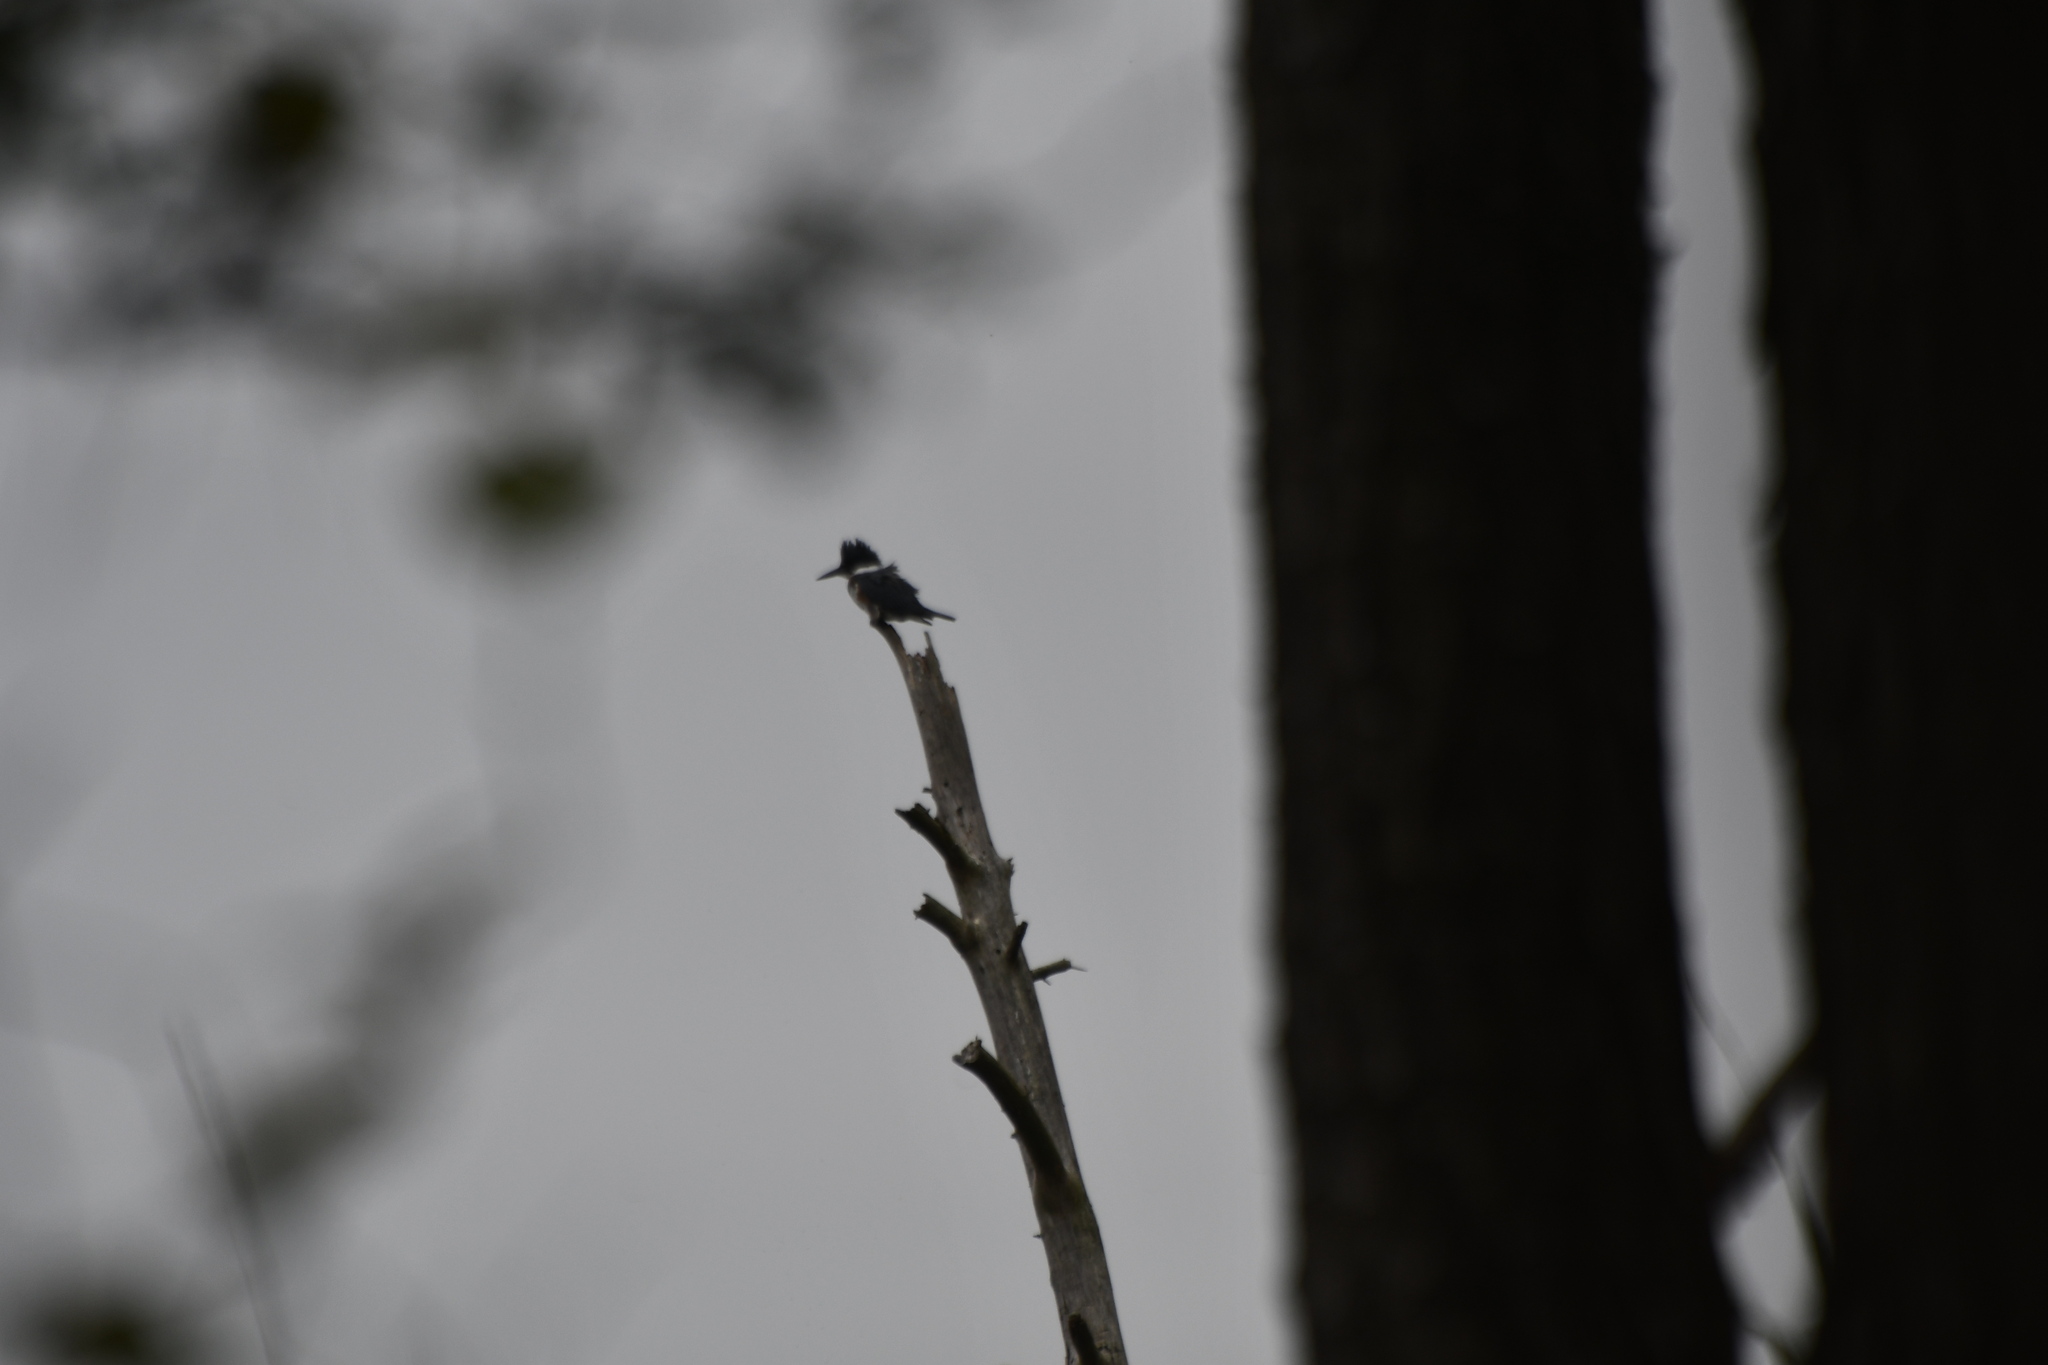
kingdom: Animalia
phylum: Chordata
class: Aves
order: Coraciiformes
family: Alcedinidae
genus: Megaceryle
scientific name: Megaceryle alcyon
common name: Belted kingfisher
